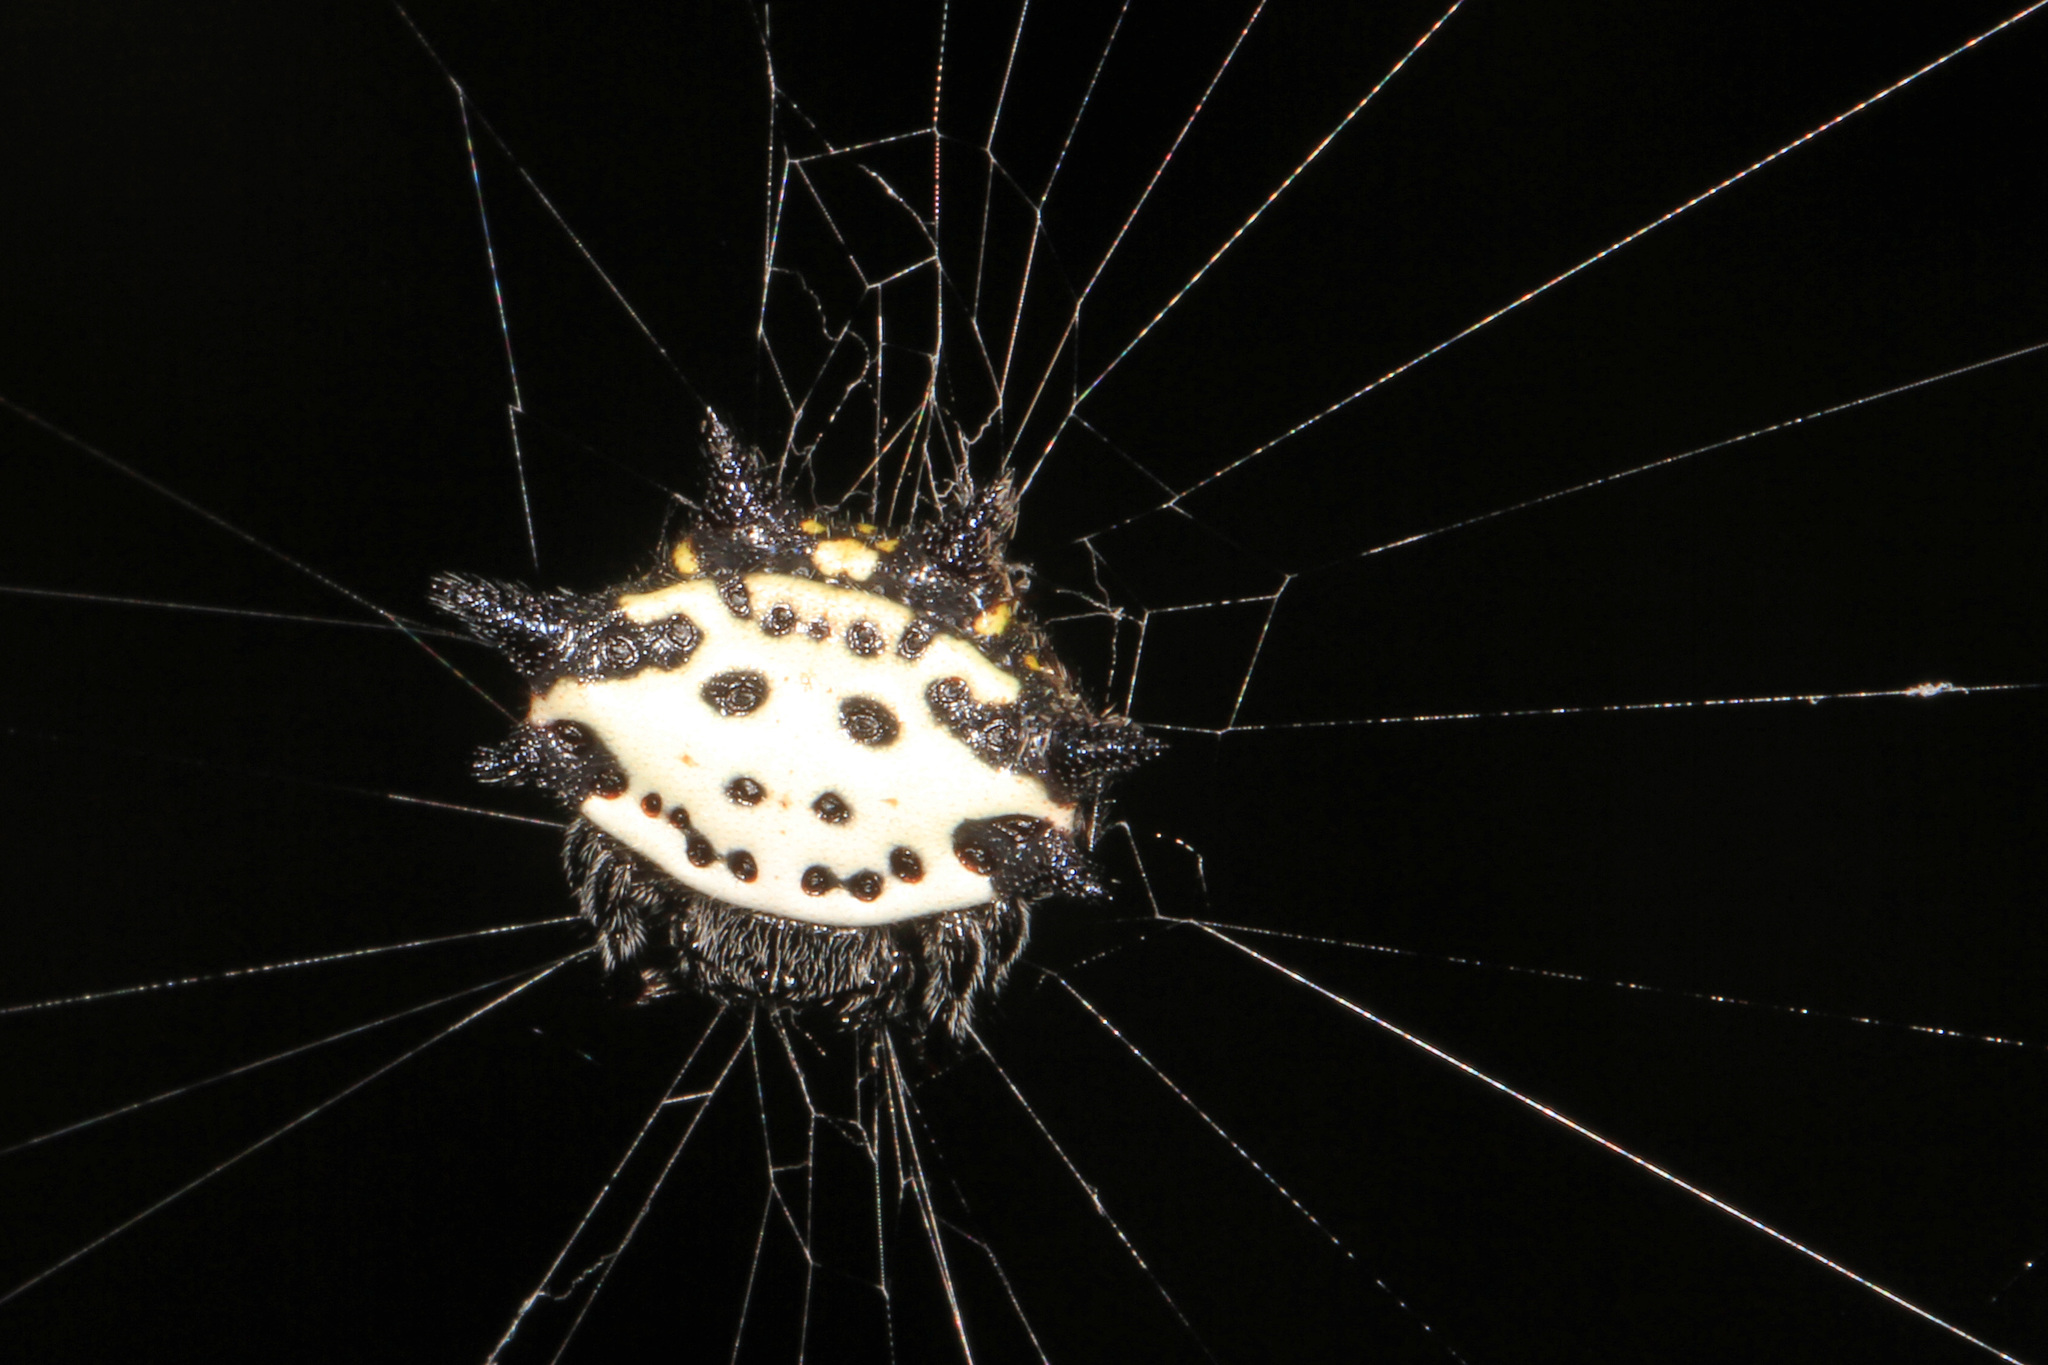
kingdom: Animalia
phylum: Arthropoda
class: Arachnida
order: Araneae
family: Araneidae
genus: Gasteracantha
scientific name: Gasteracantha cancriformis
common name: Orb weavers
